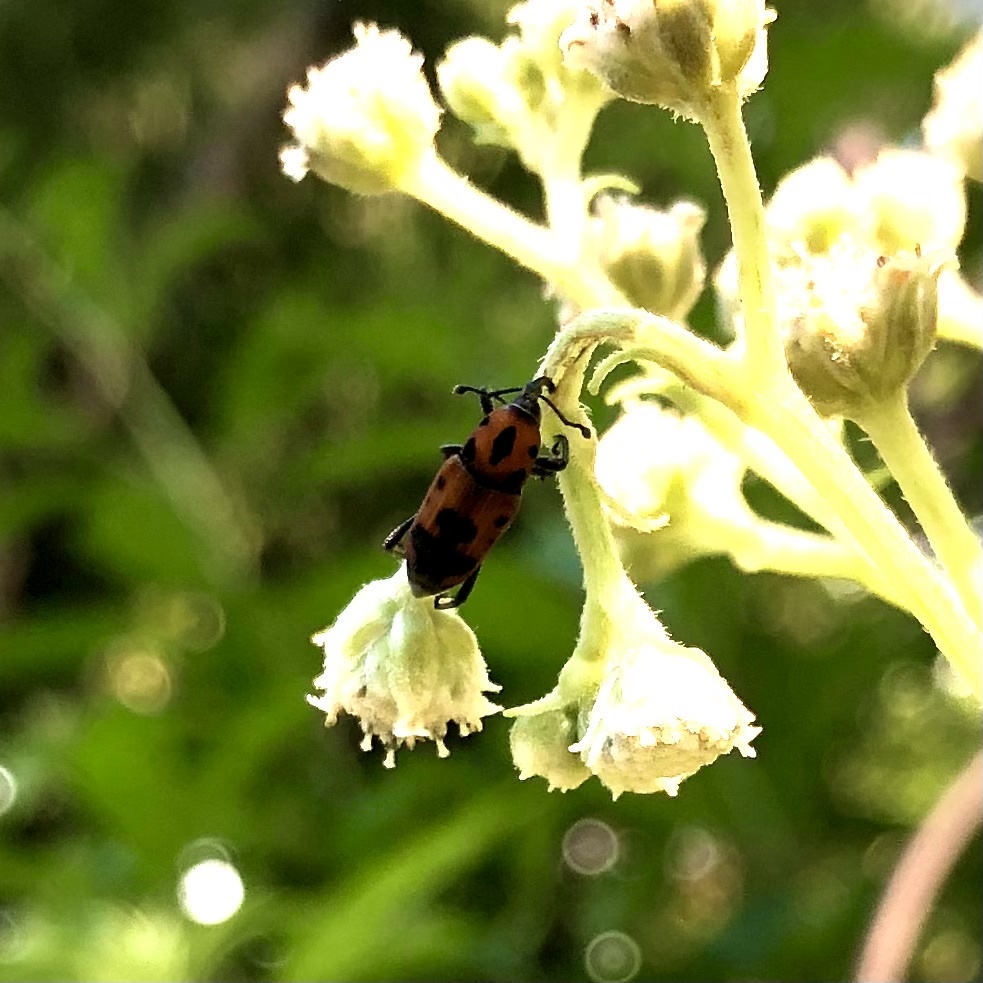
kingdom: Animalia
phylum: Arthropoda
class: Insecta
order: Coleoptera
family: Dryophthoridae
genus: Rhodobaenus
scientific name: Rhodobaenus quinquepunctatus
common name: Cocklebur weevil
